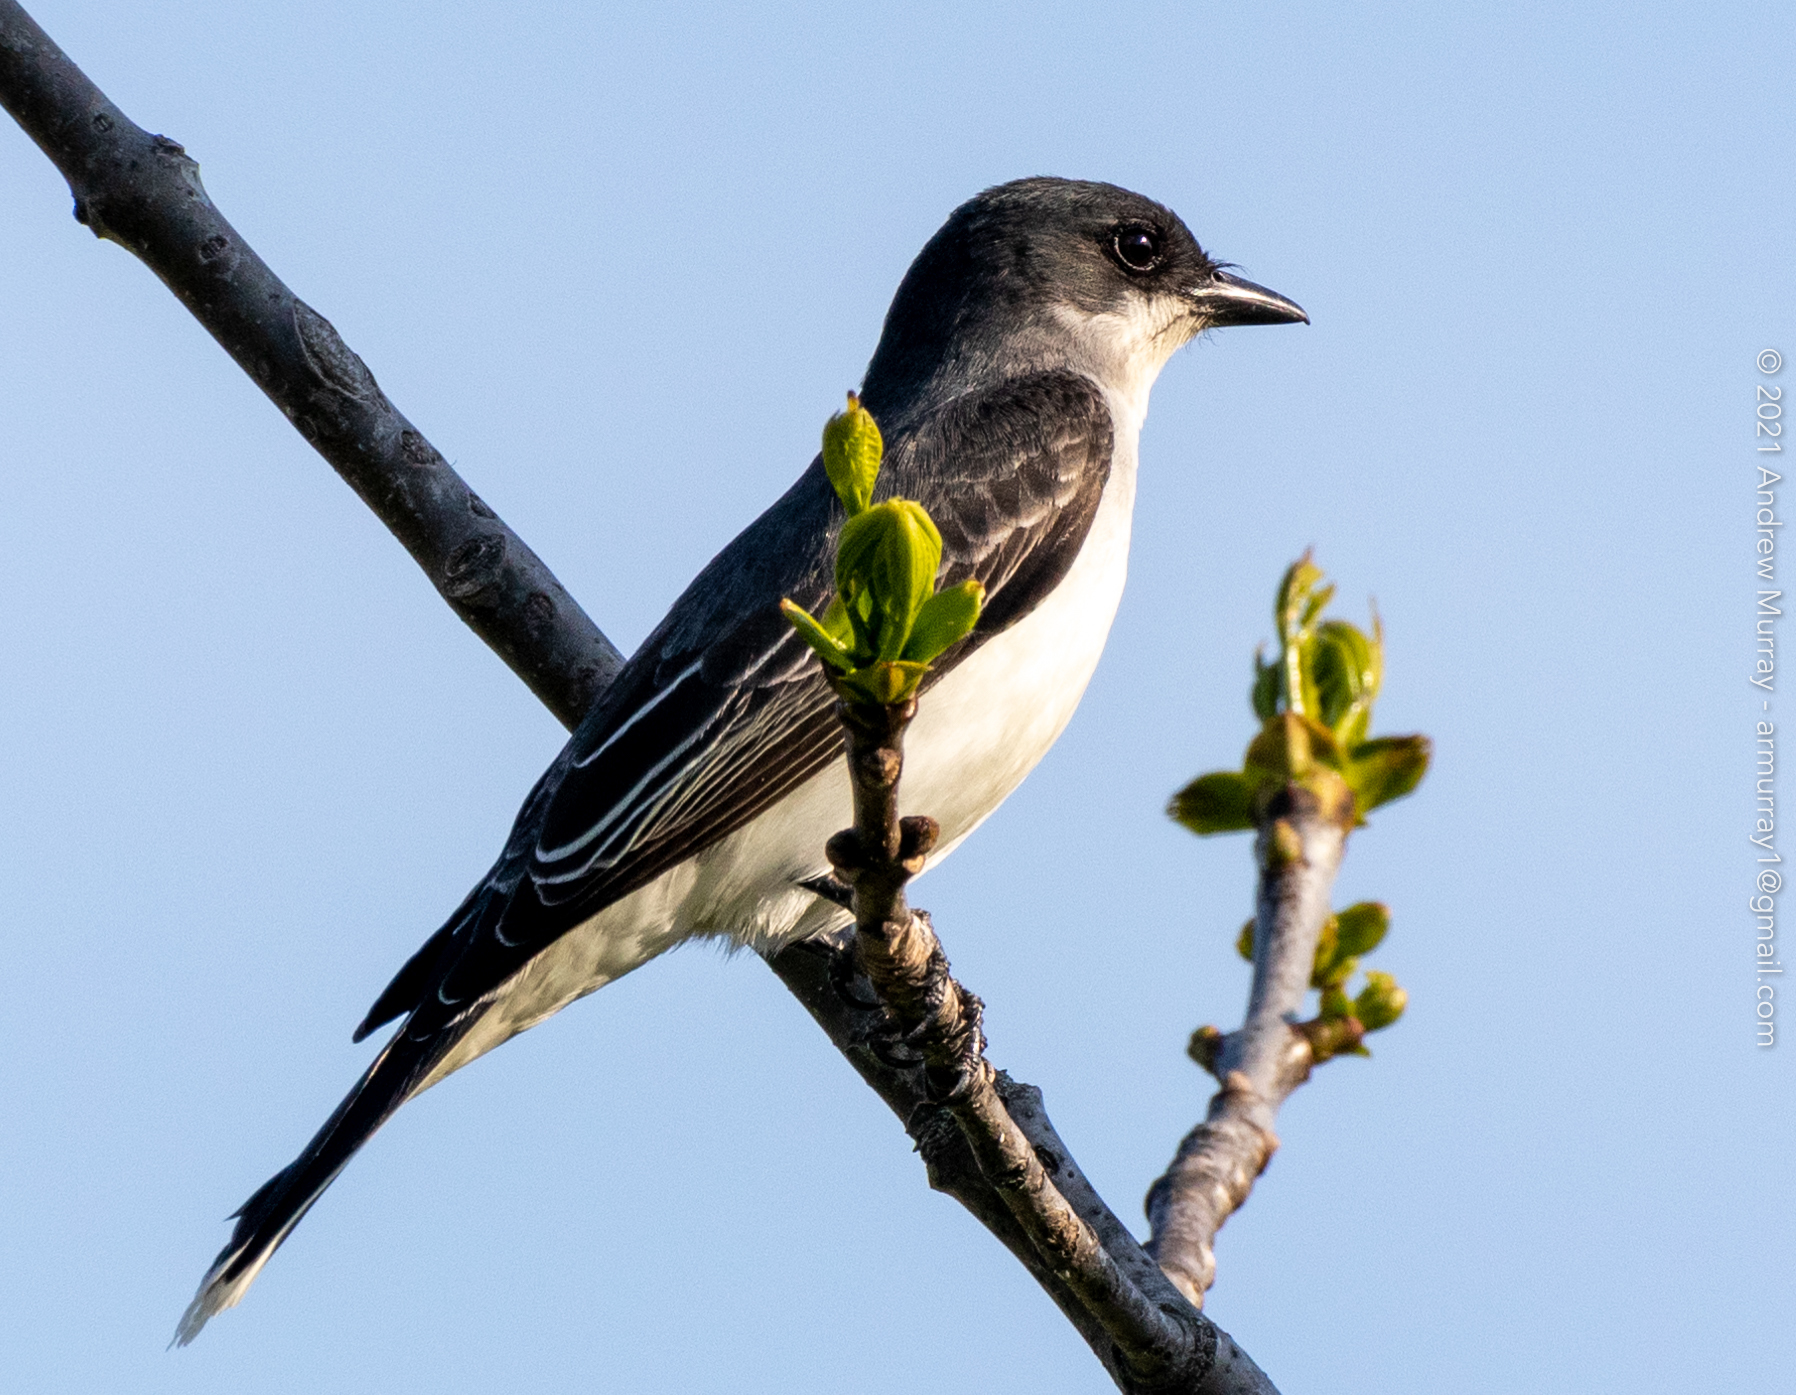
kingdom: Animalia
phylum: Chordata
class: Aves
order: Passeriformes
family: Tyrannidae
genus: Tyrannus
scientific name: Tyrannus tyrannus
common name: Eastern kingbird
